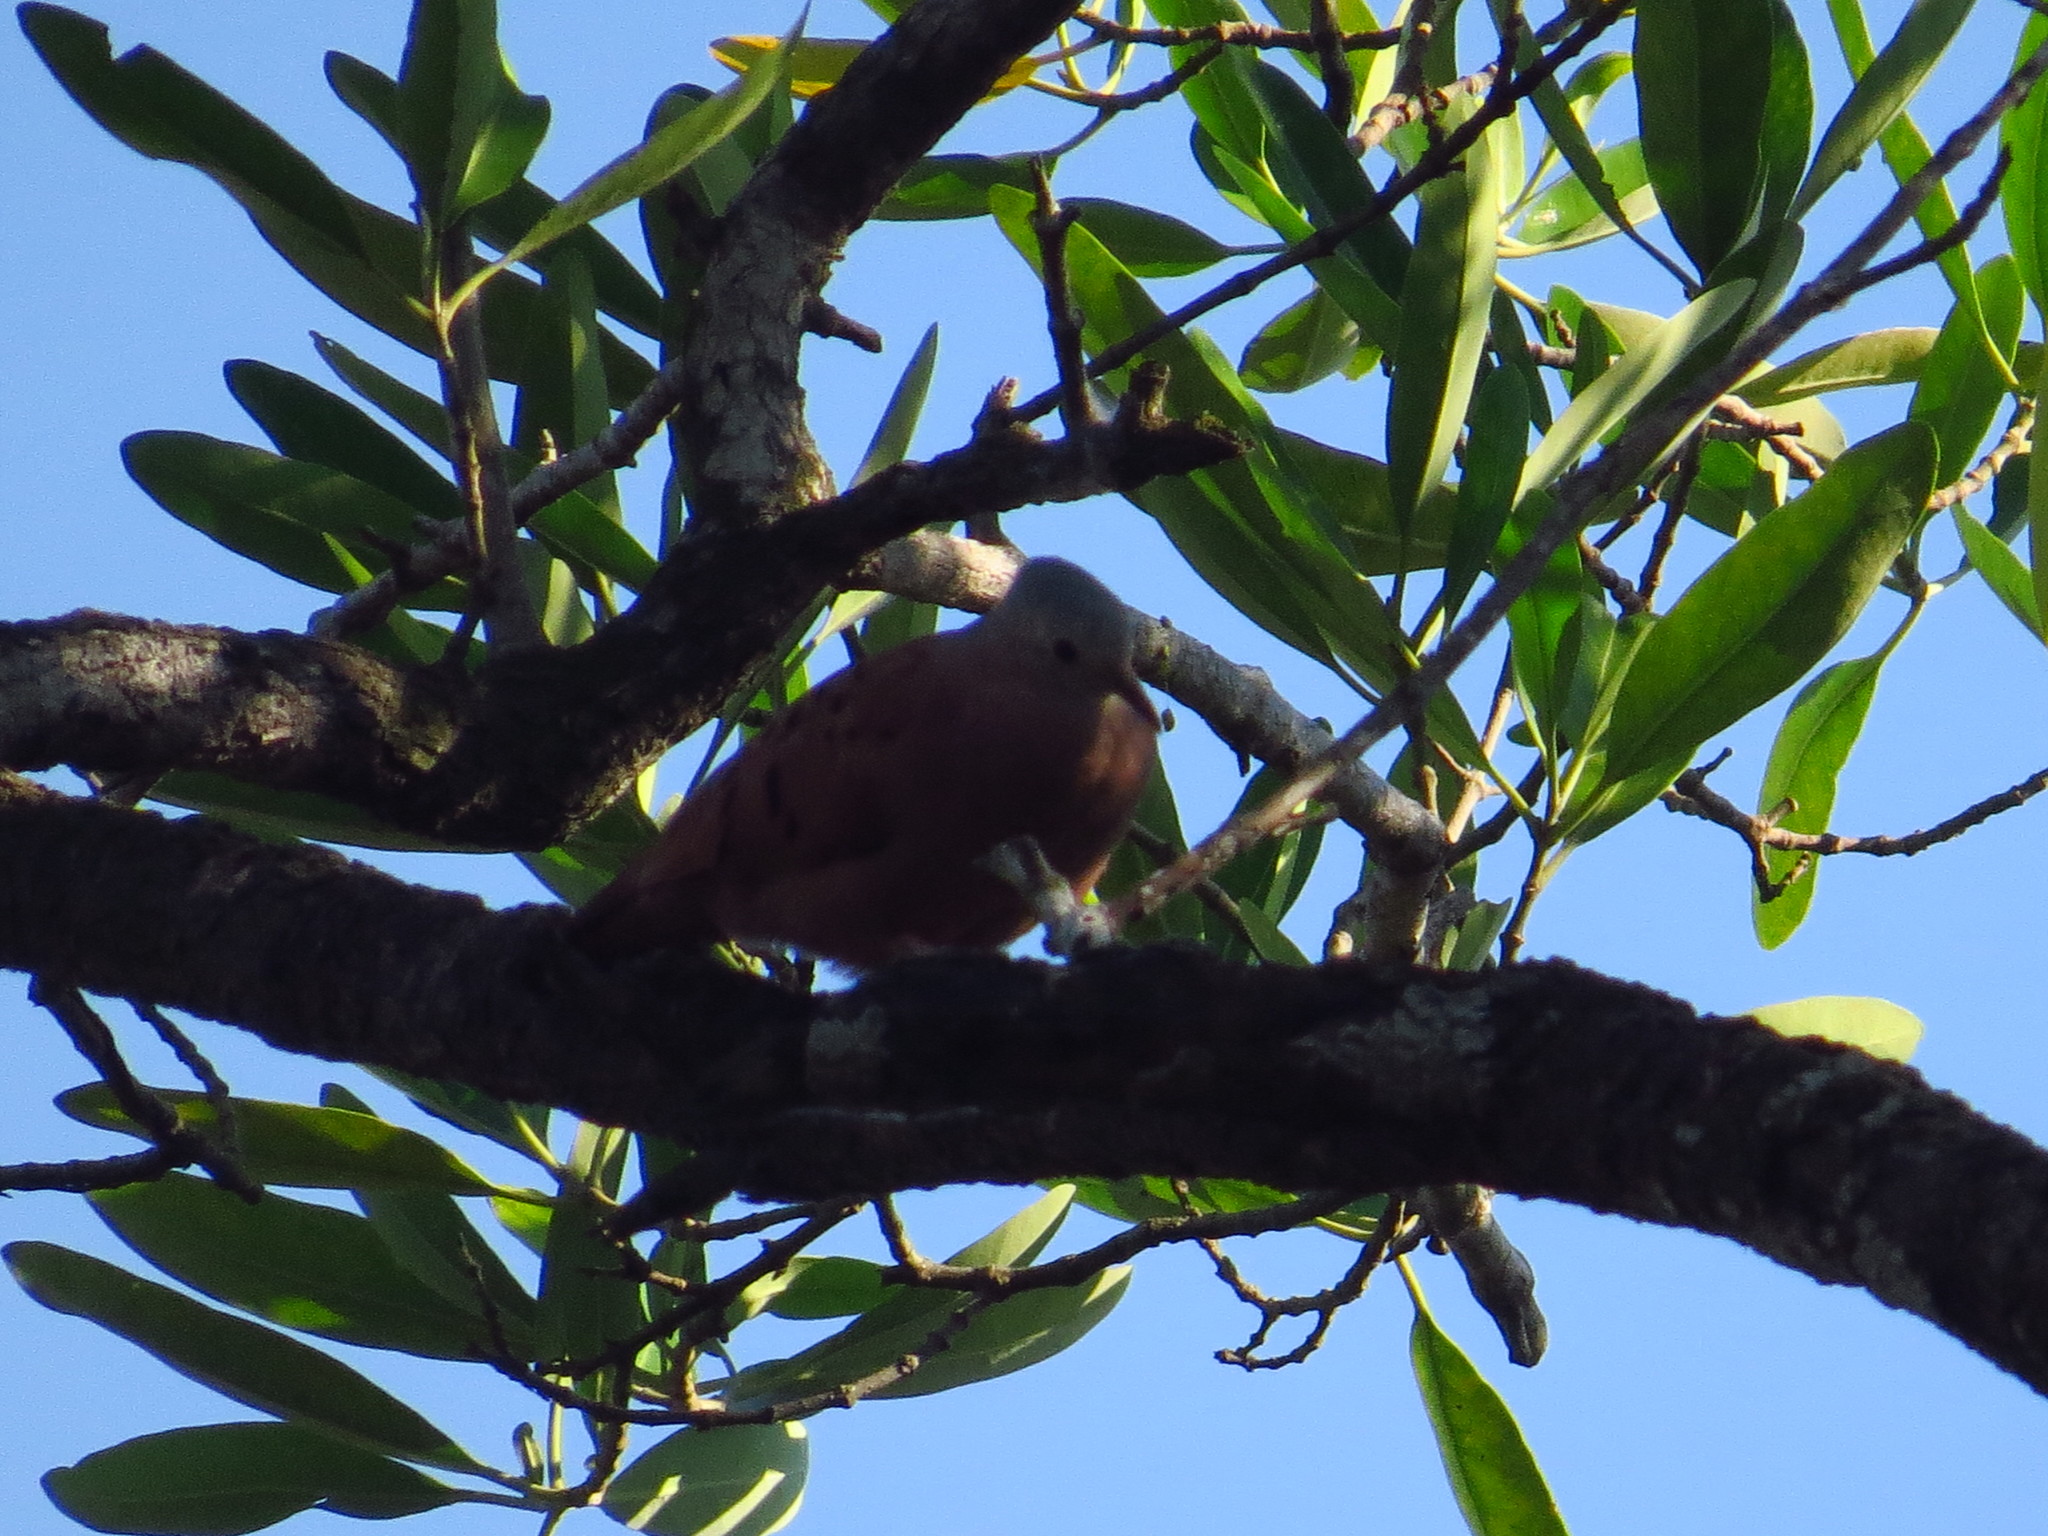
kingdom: Animalia
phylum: Chordata
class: Aves
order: Columbiformes
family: Columbidae
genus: Columbina
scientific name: Columbina talpacoti
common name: Ruddy ground dove
